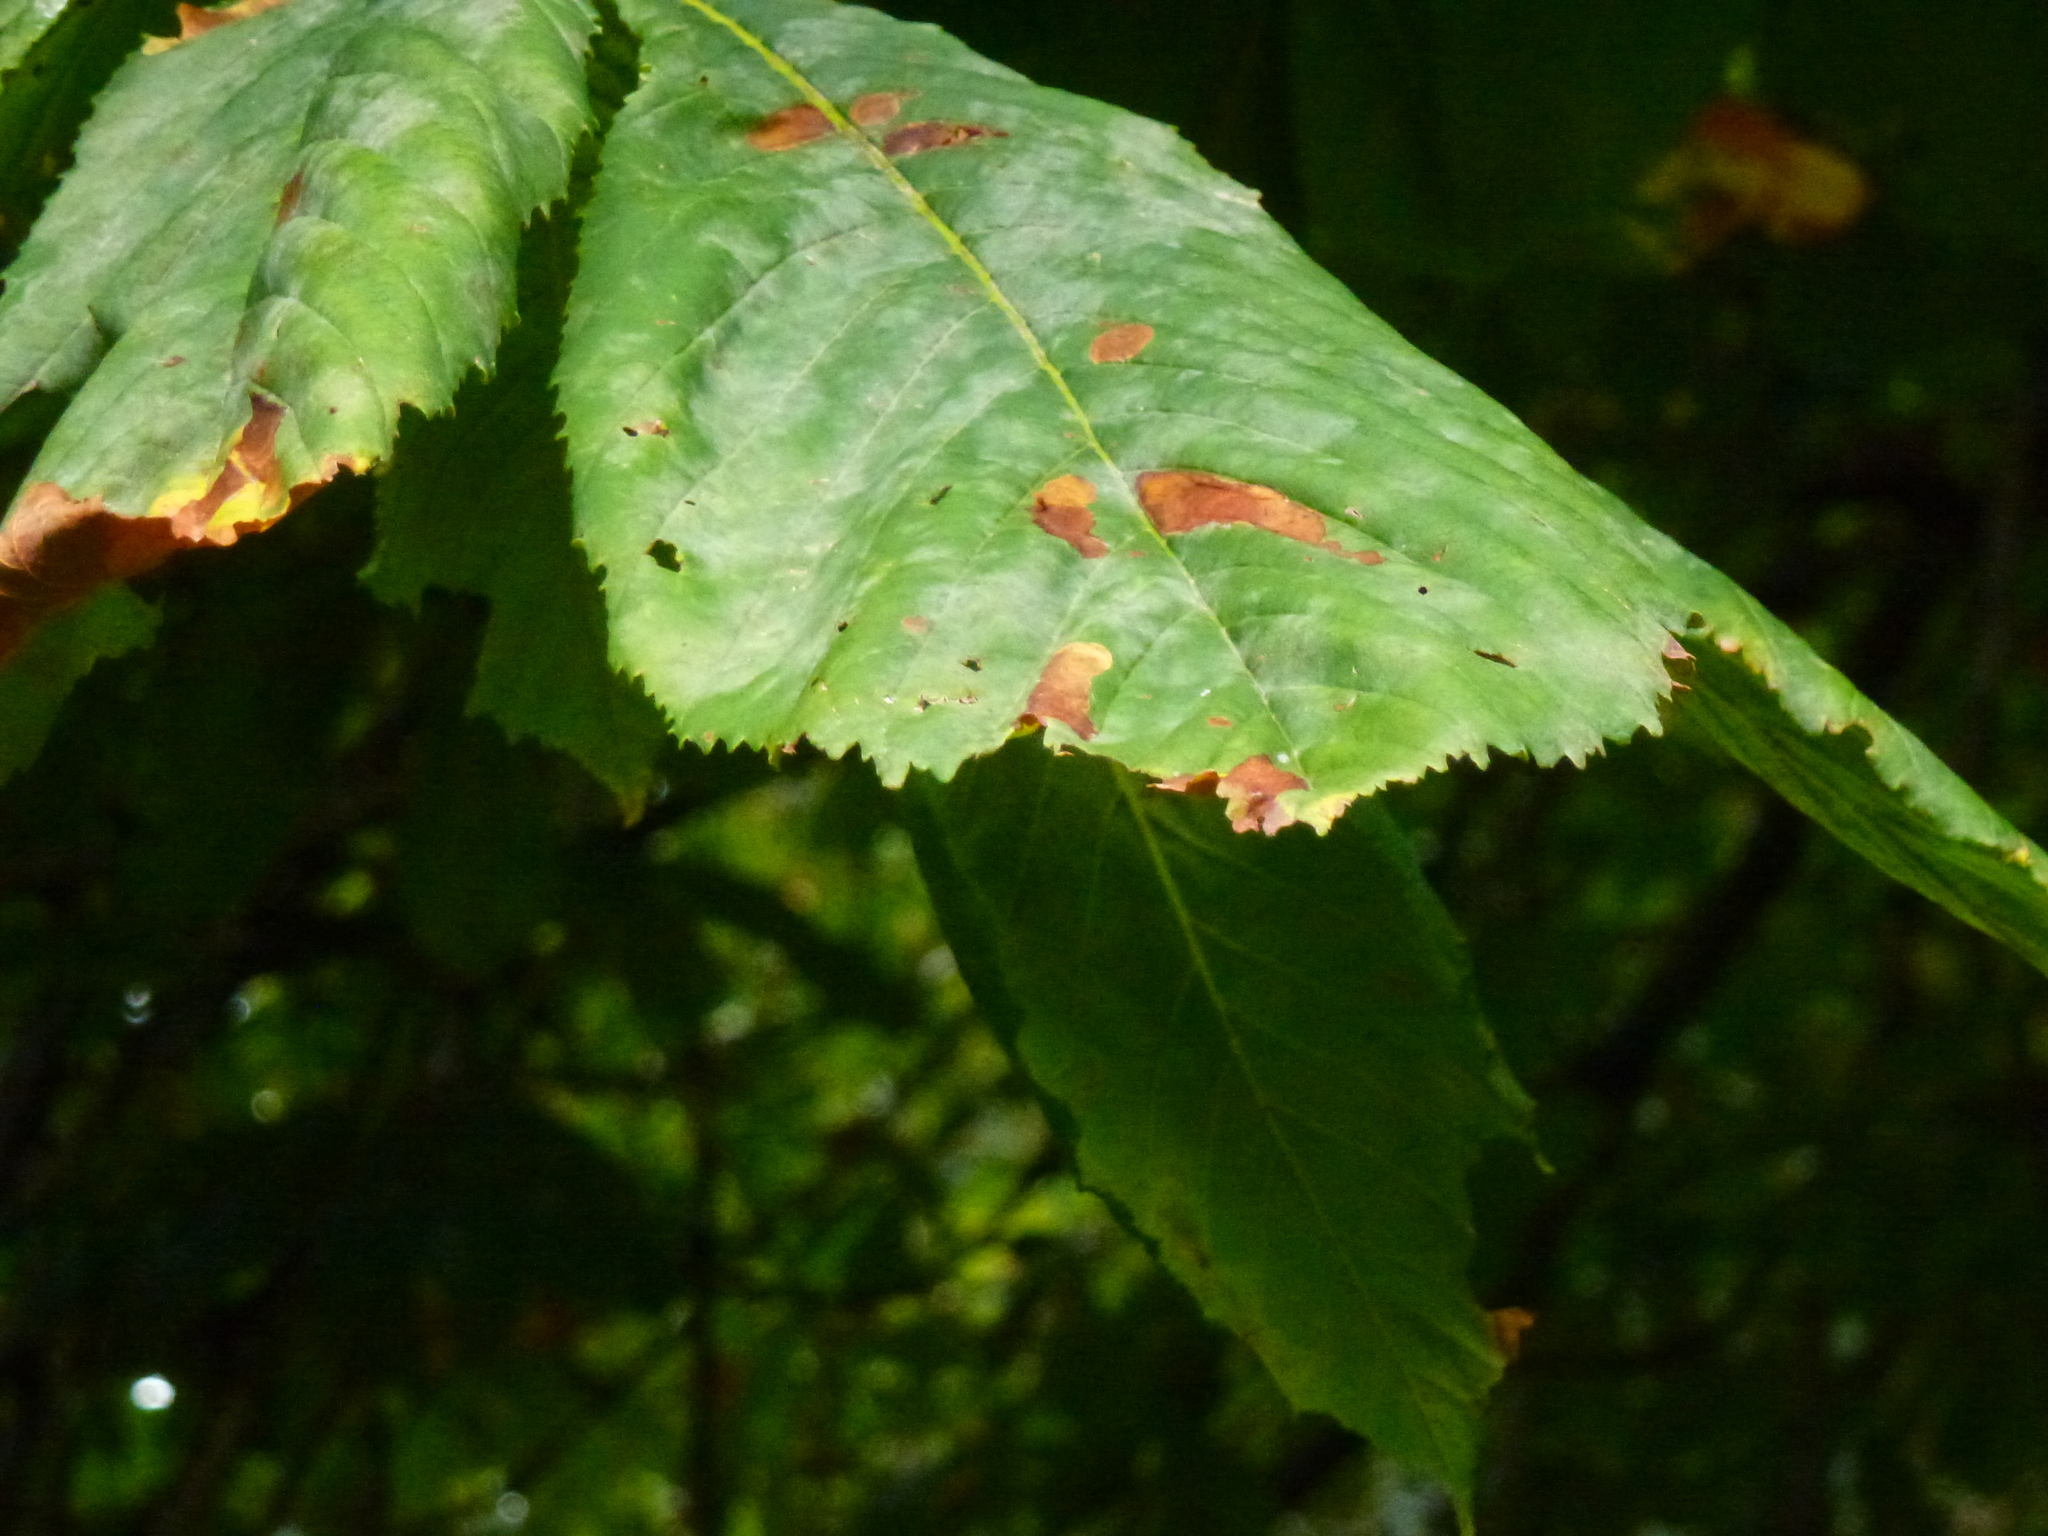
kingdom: Animalia
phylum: Arthropoda
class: Insecta
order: Lepidoptera
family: Gracillariidae
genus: Cameraria
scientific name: Cameraria ohridella
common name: Horse-chestnut leaf-miner
